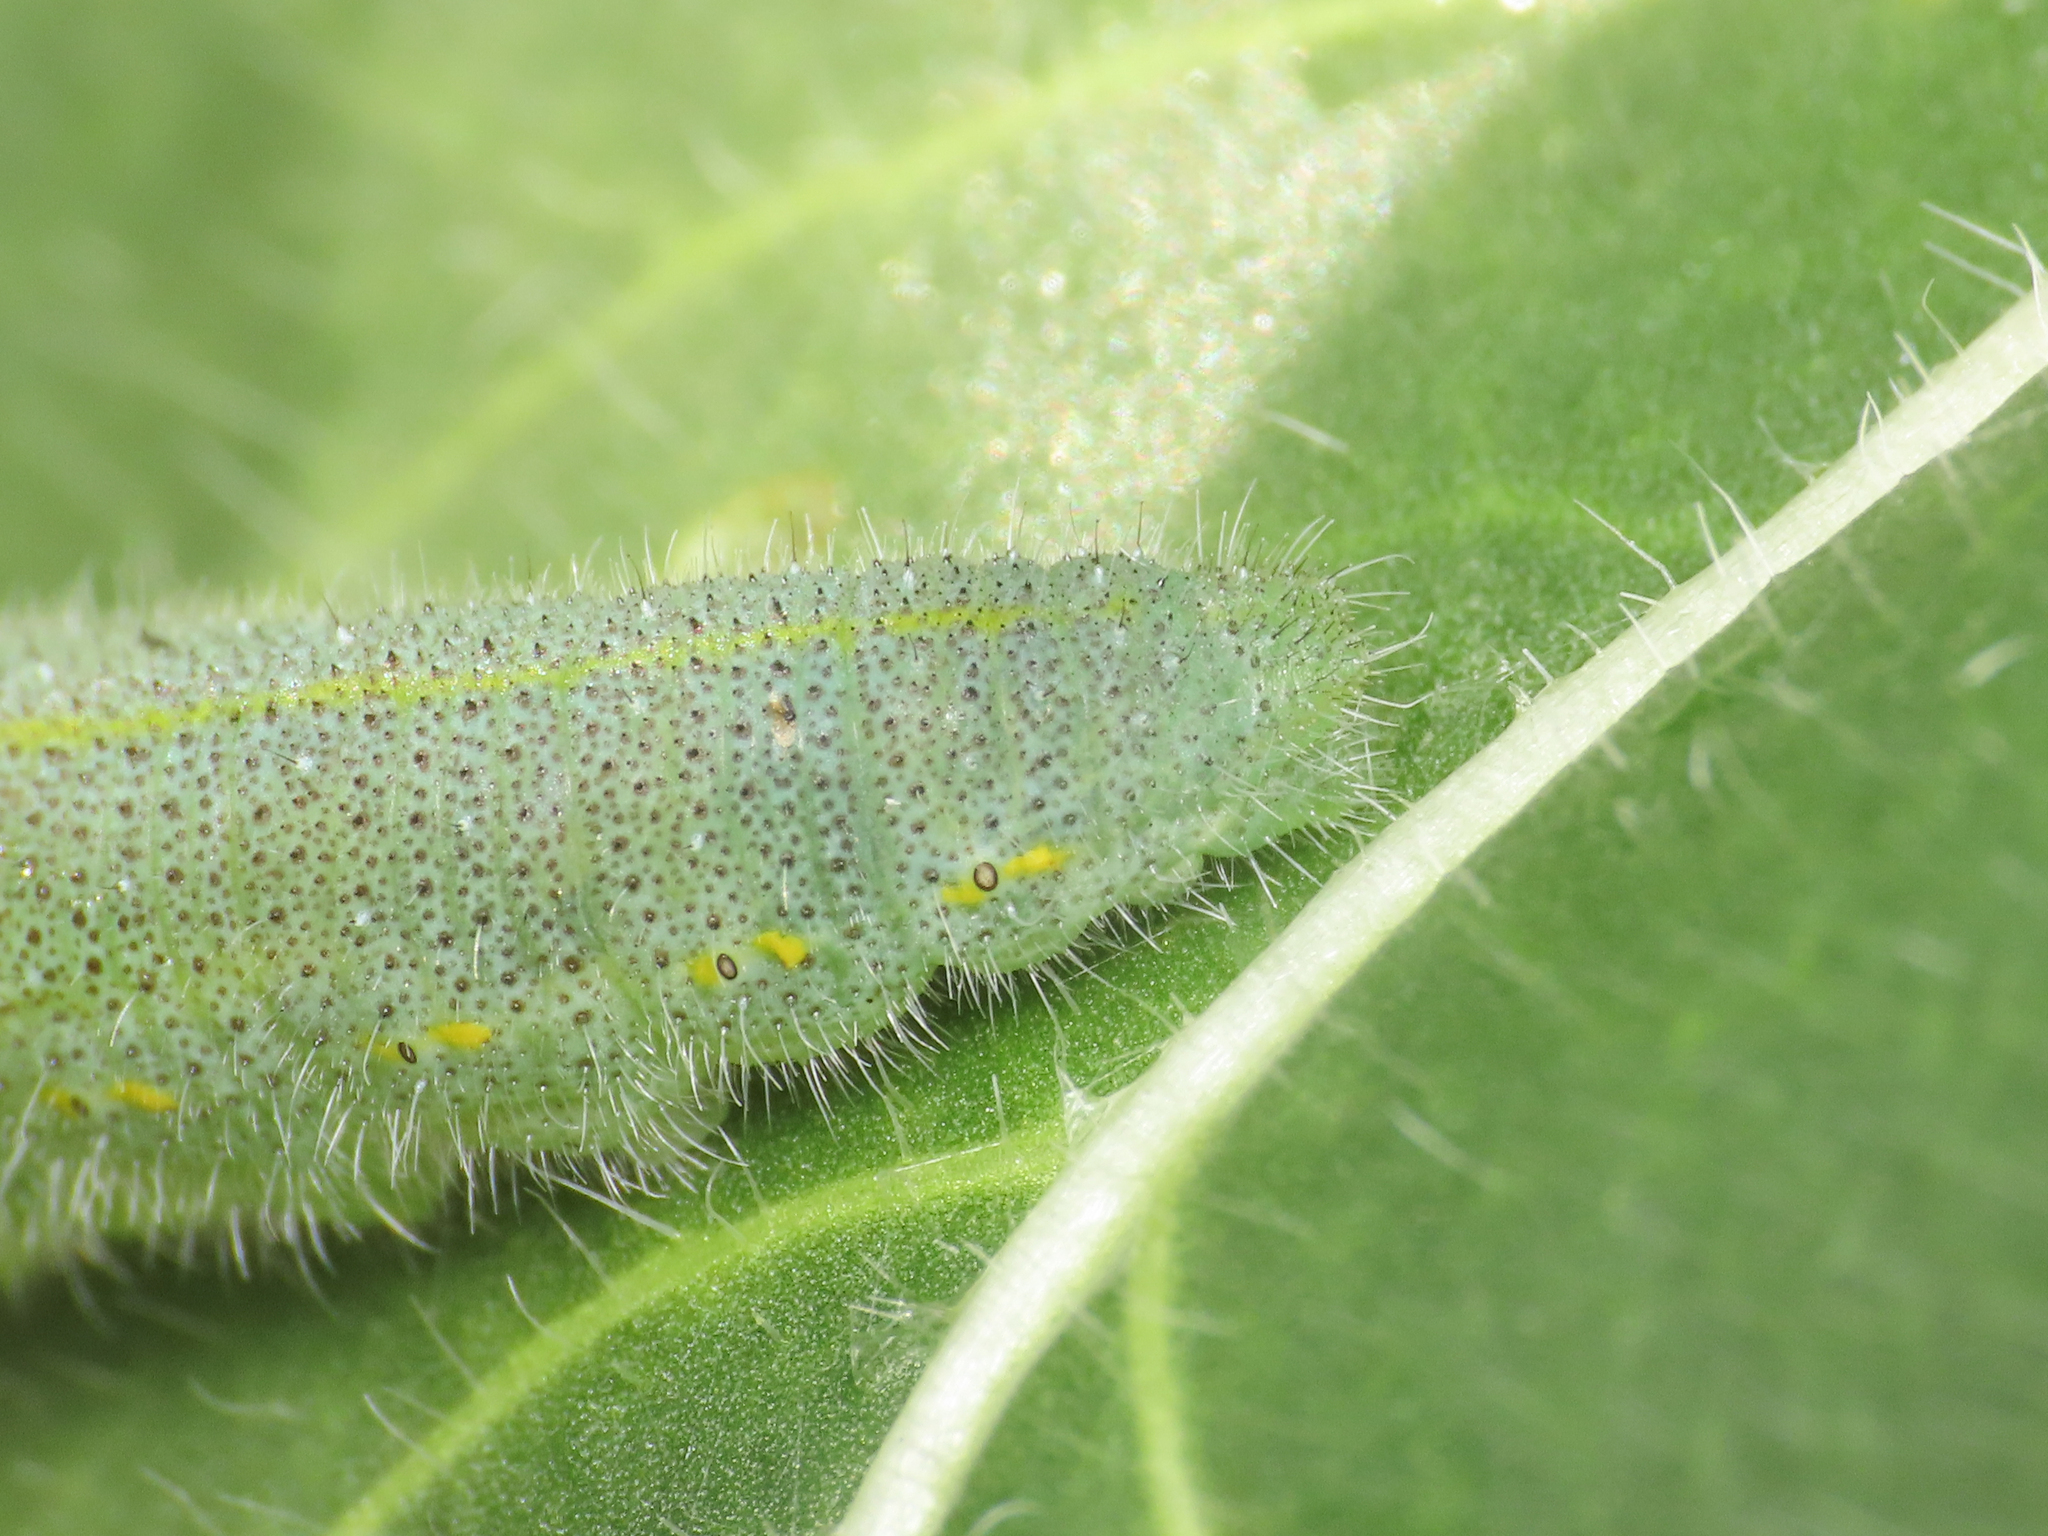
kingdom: Animalia
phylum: Arthropoda
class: Insecta
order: Lepidoptera
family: Pieridae
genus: Pieris
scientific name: Pieris rapae
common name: Small white
